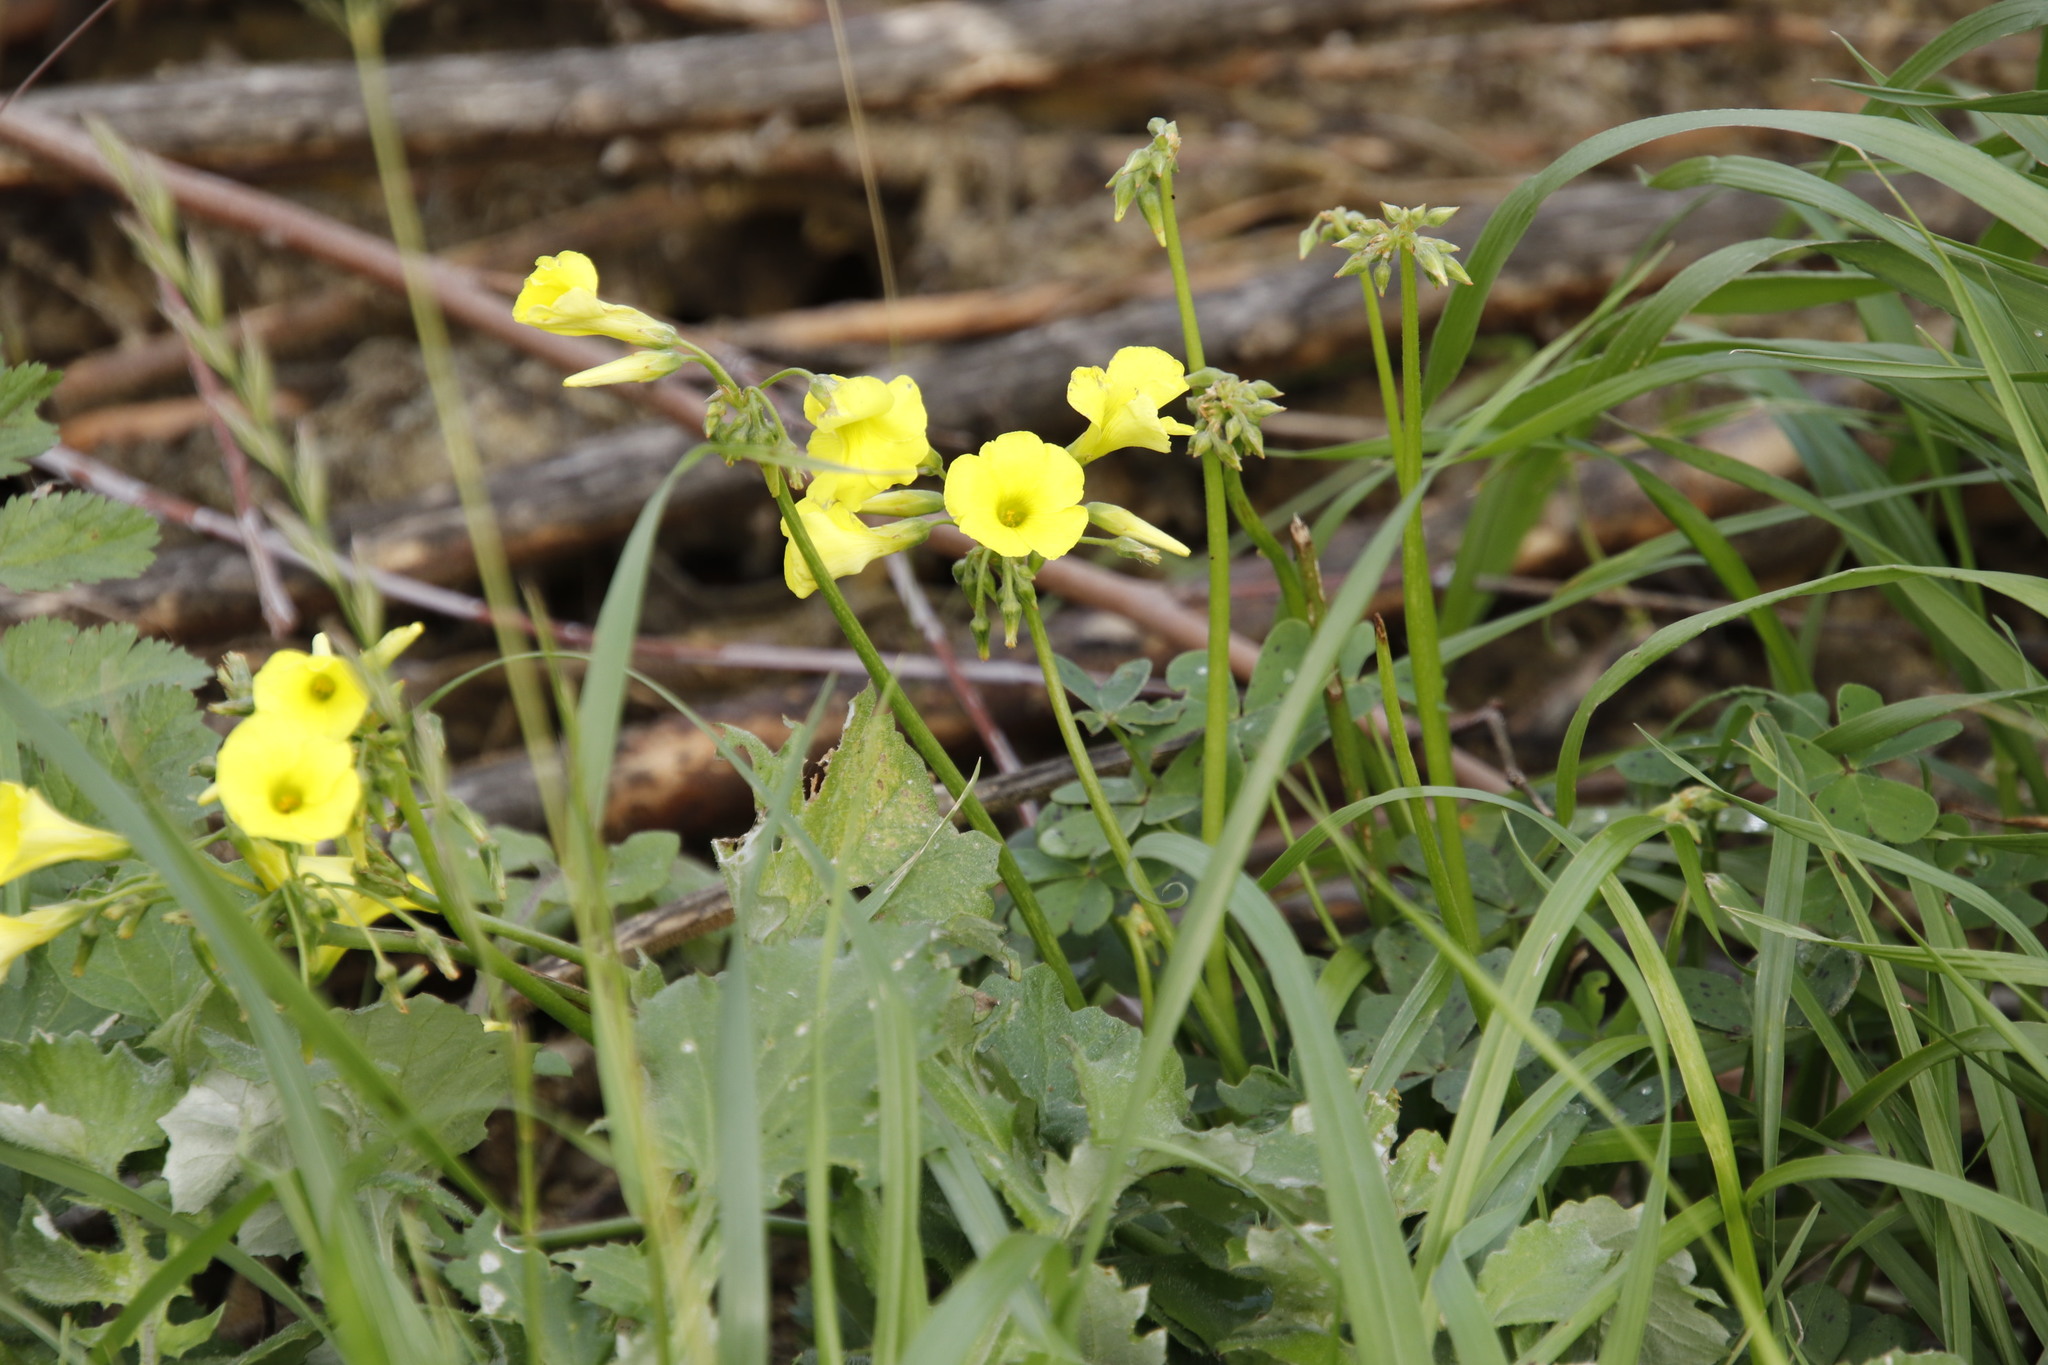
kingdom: Plantae
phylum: Tracheophyta
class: Magnoliopsida
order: Oxalidales
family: Oxalidaceae
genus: Oxalis
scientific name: Oxalis pes-caprae
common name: Bermuda-buttercup
